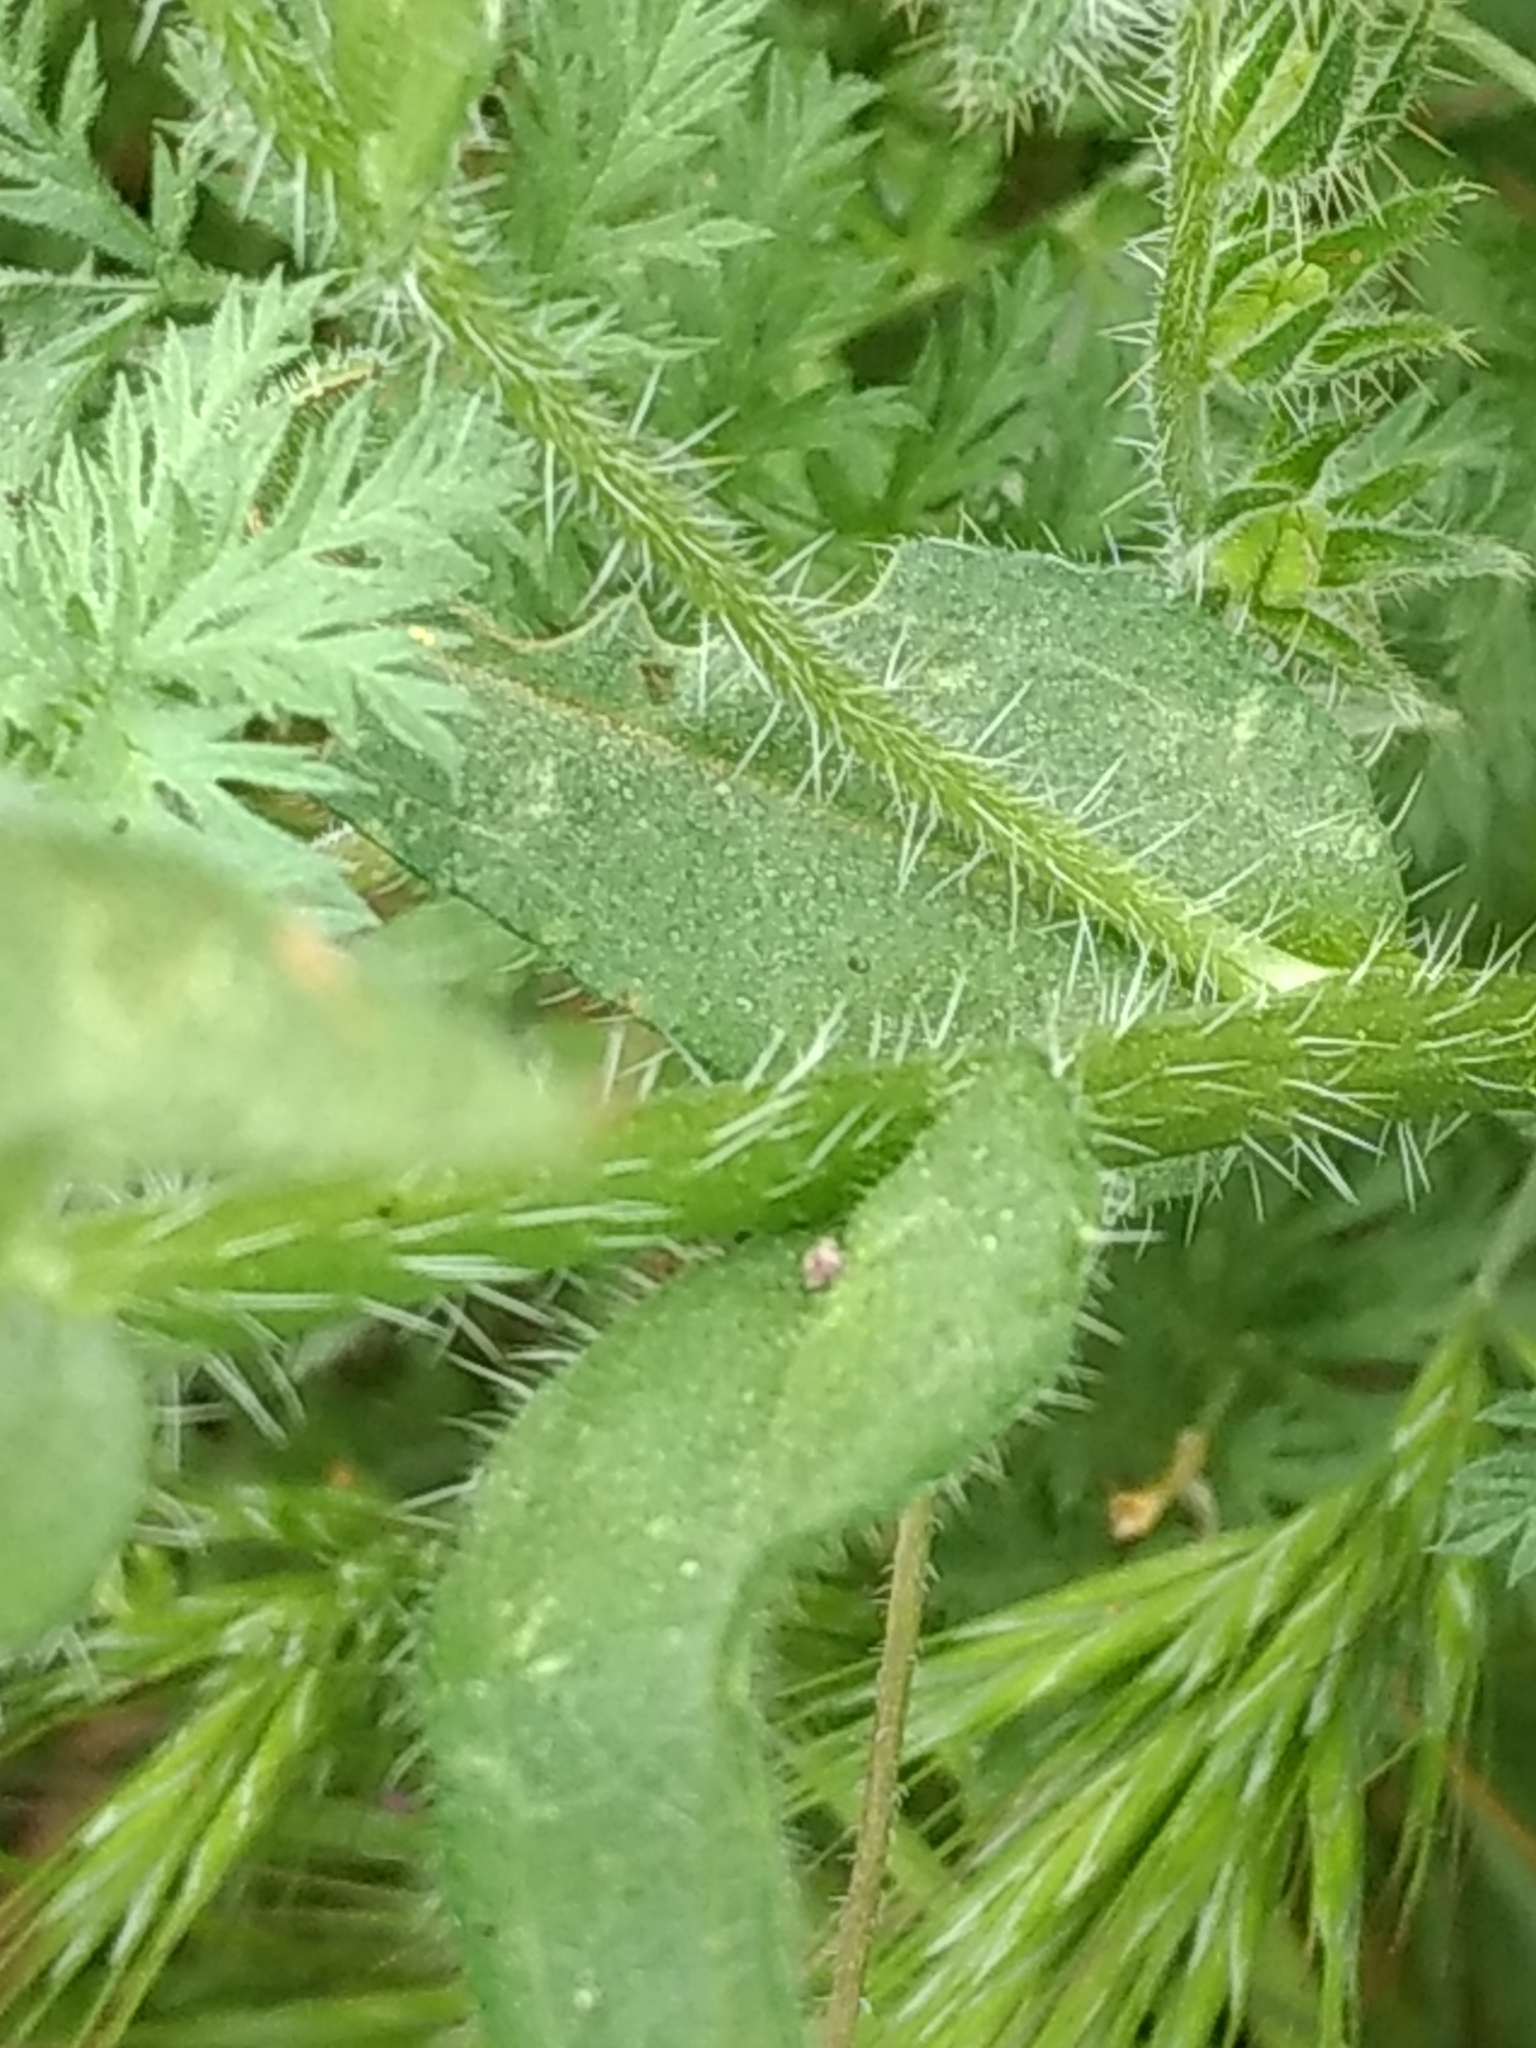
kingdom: Plantae
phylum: Tracheophyta
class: Magnoliopsida
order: Boraginales
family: Boraginaceae
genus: Amsinckia
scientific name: Amsinckia menziesii
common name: Menzies' fiddleneck
